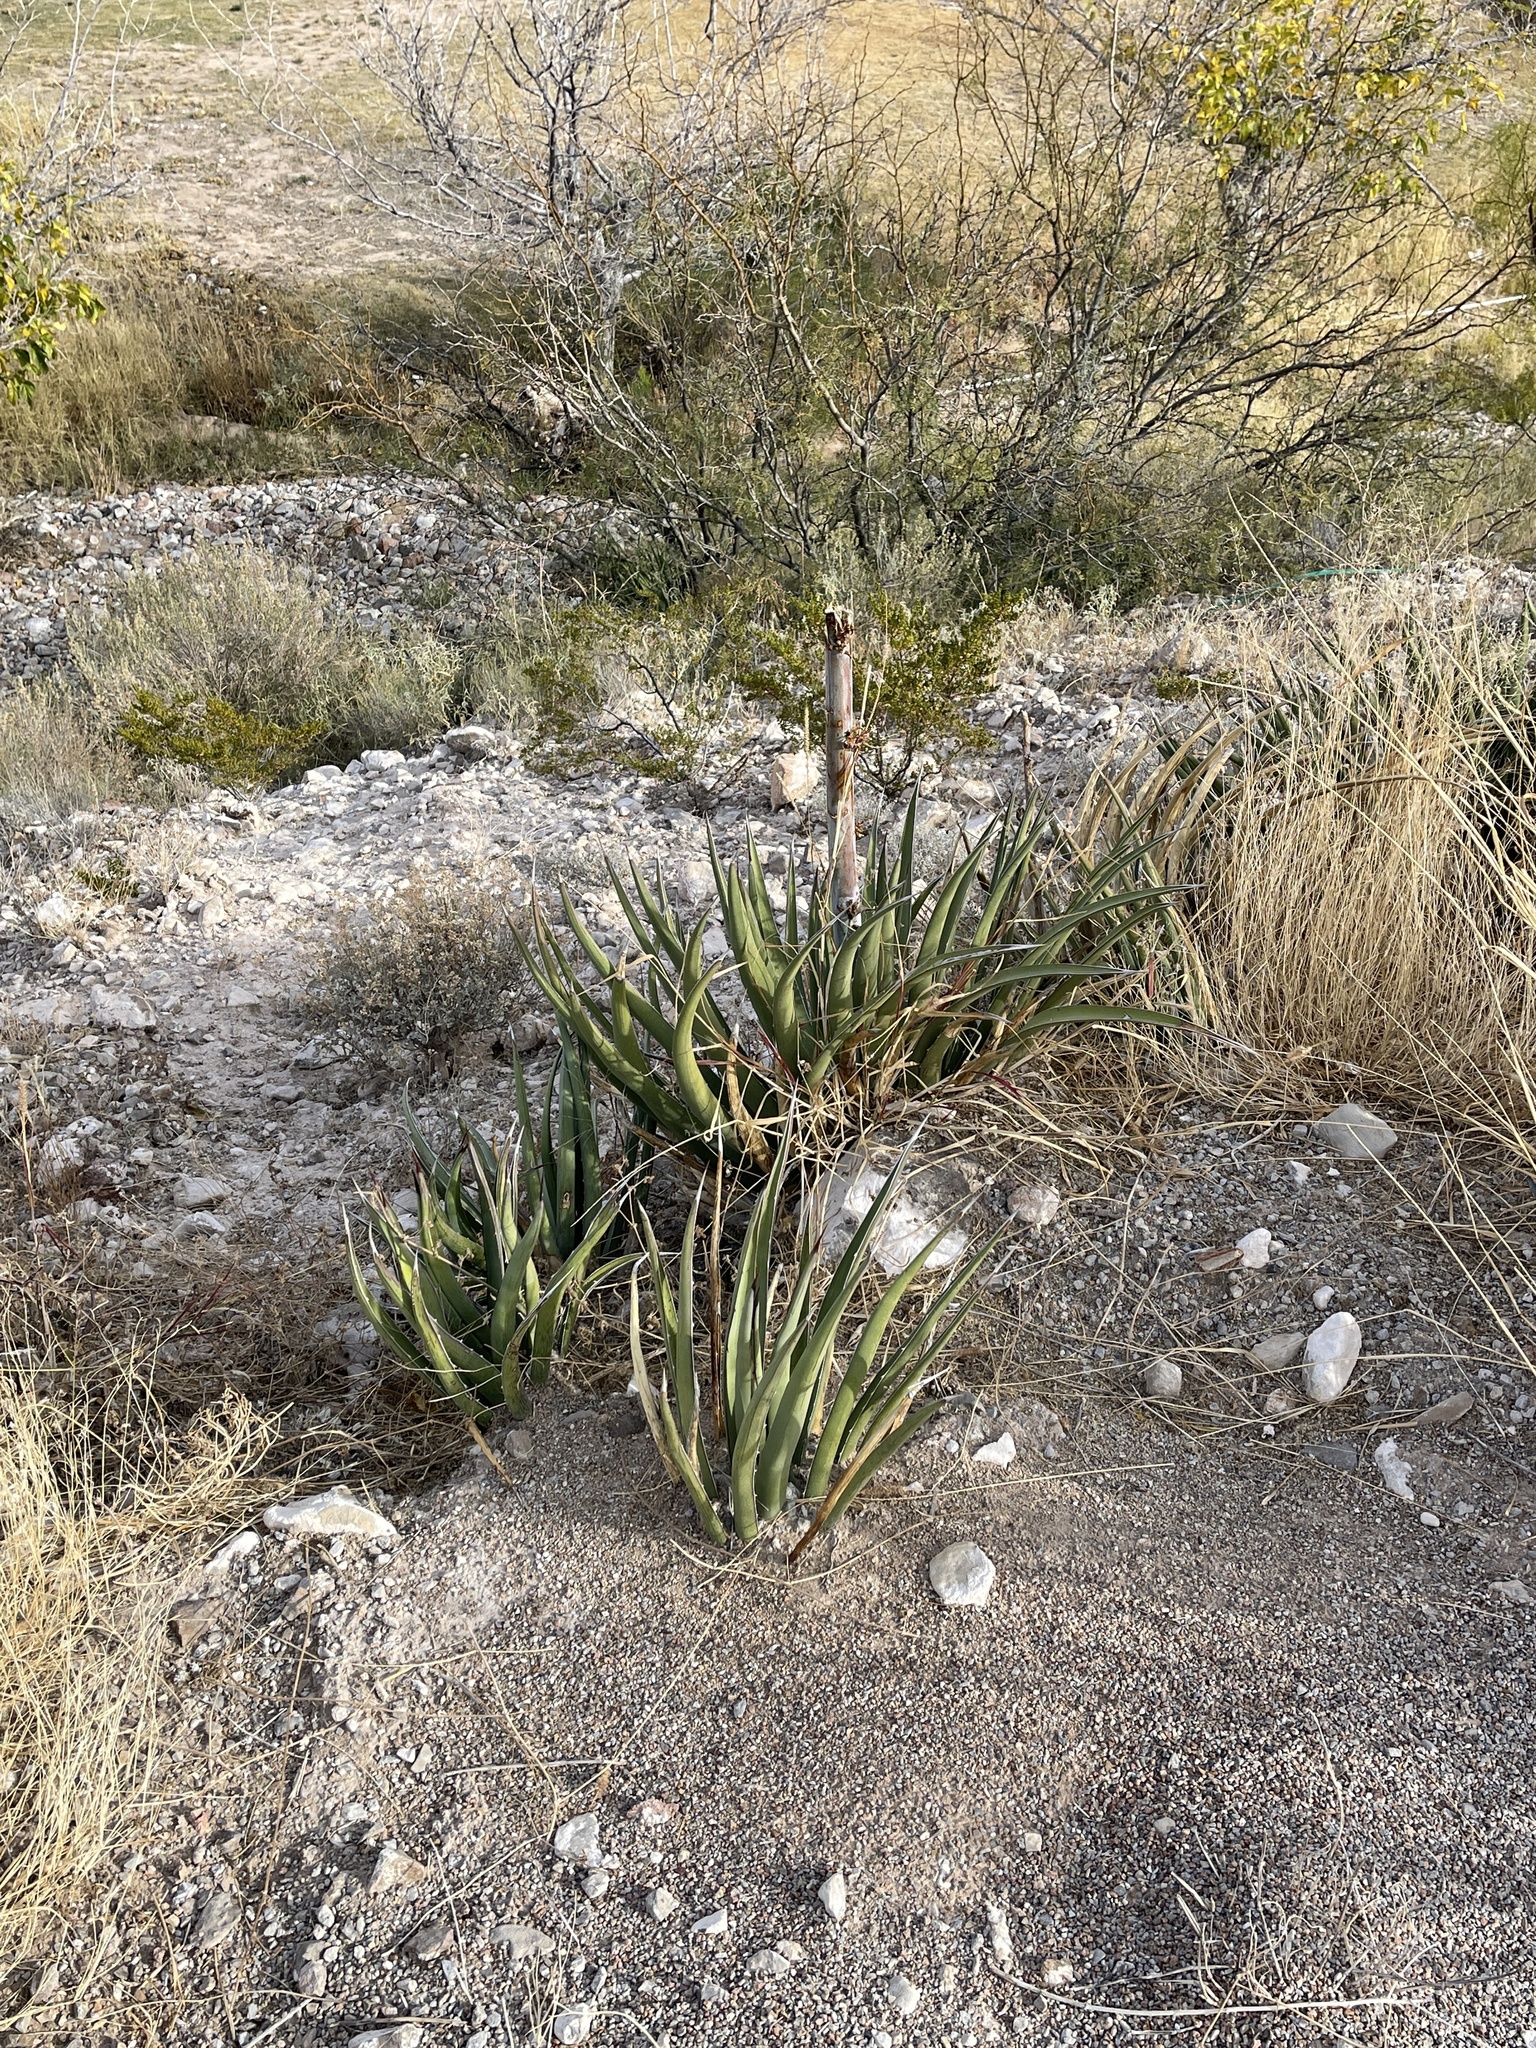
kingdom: Plantae
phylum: Tracheophyta
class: Liliopsida
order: Asparagales
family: Asparagaceae
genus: Agave
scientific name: Agave lechuguilla
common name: Lecheguilla agave
